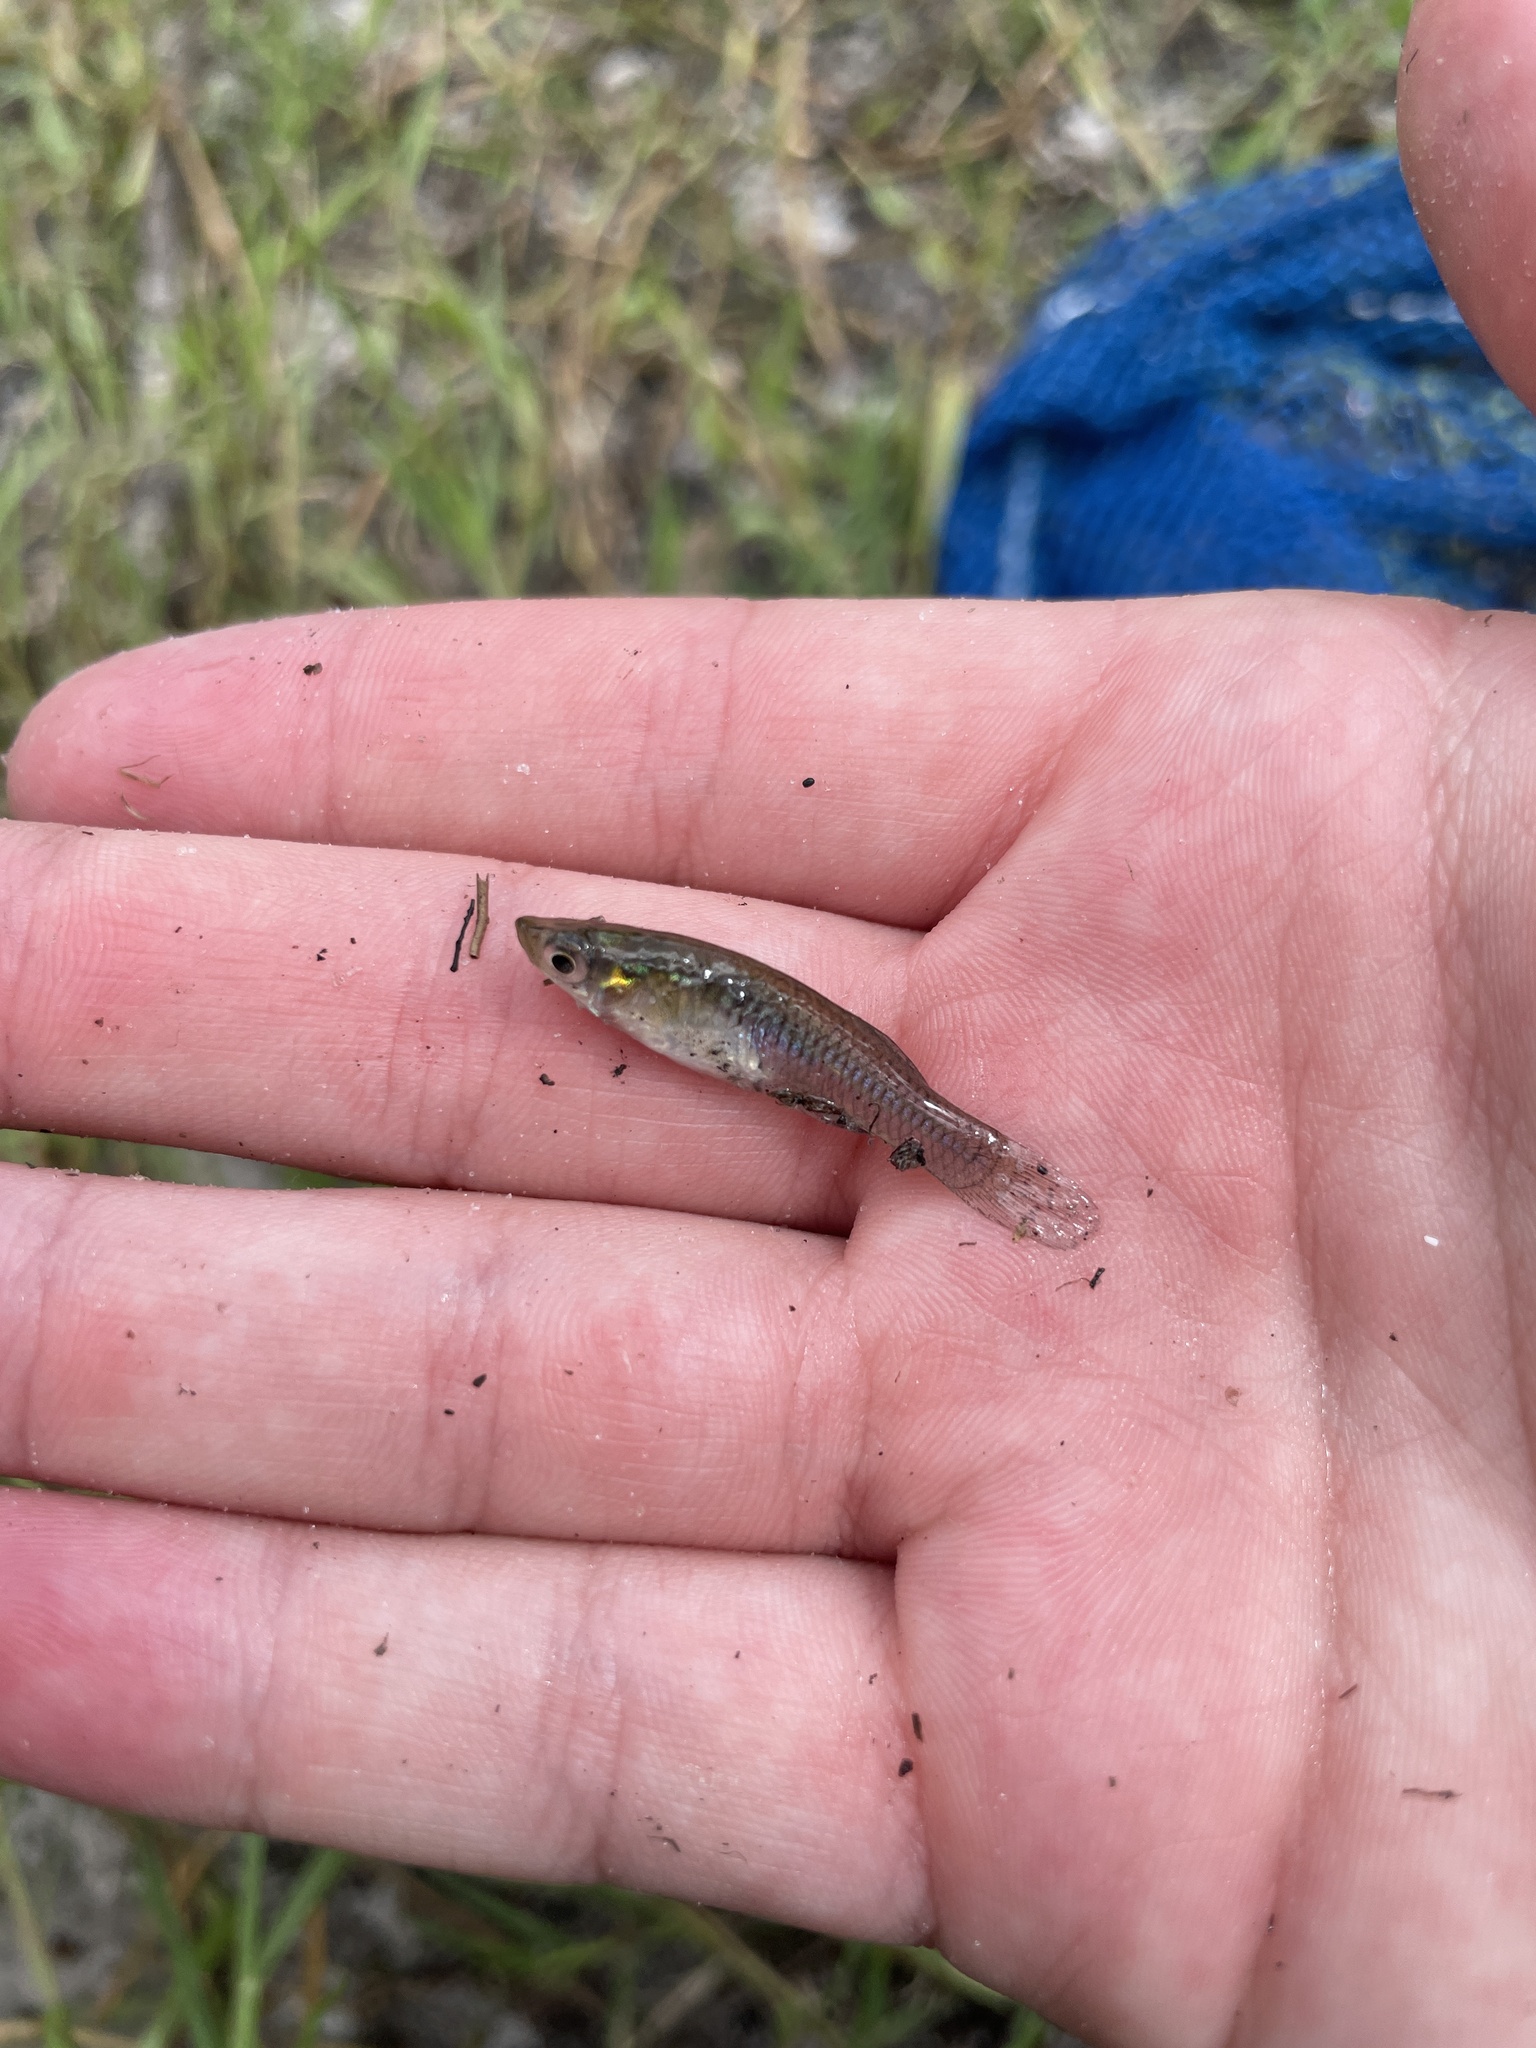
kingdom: Animalia
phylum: Chordata
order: Cyprinodontiformes
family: Poeciliidae
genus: Gambusia
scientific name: Gambusia holbrooki
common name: Eastern mosquitofish
